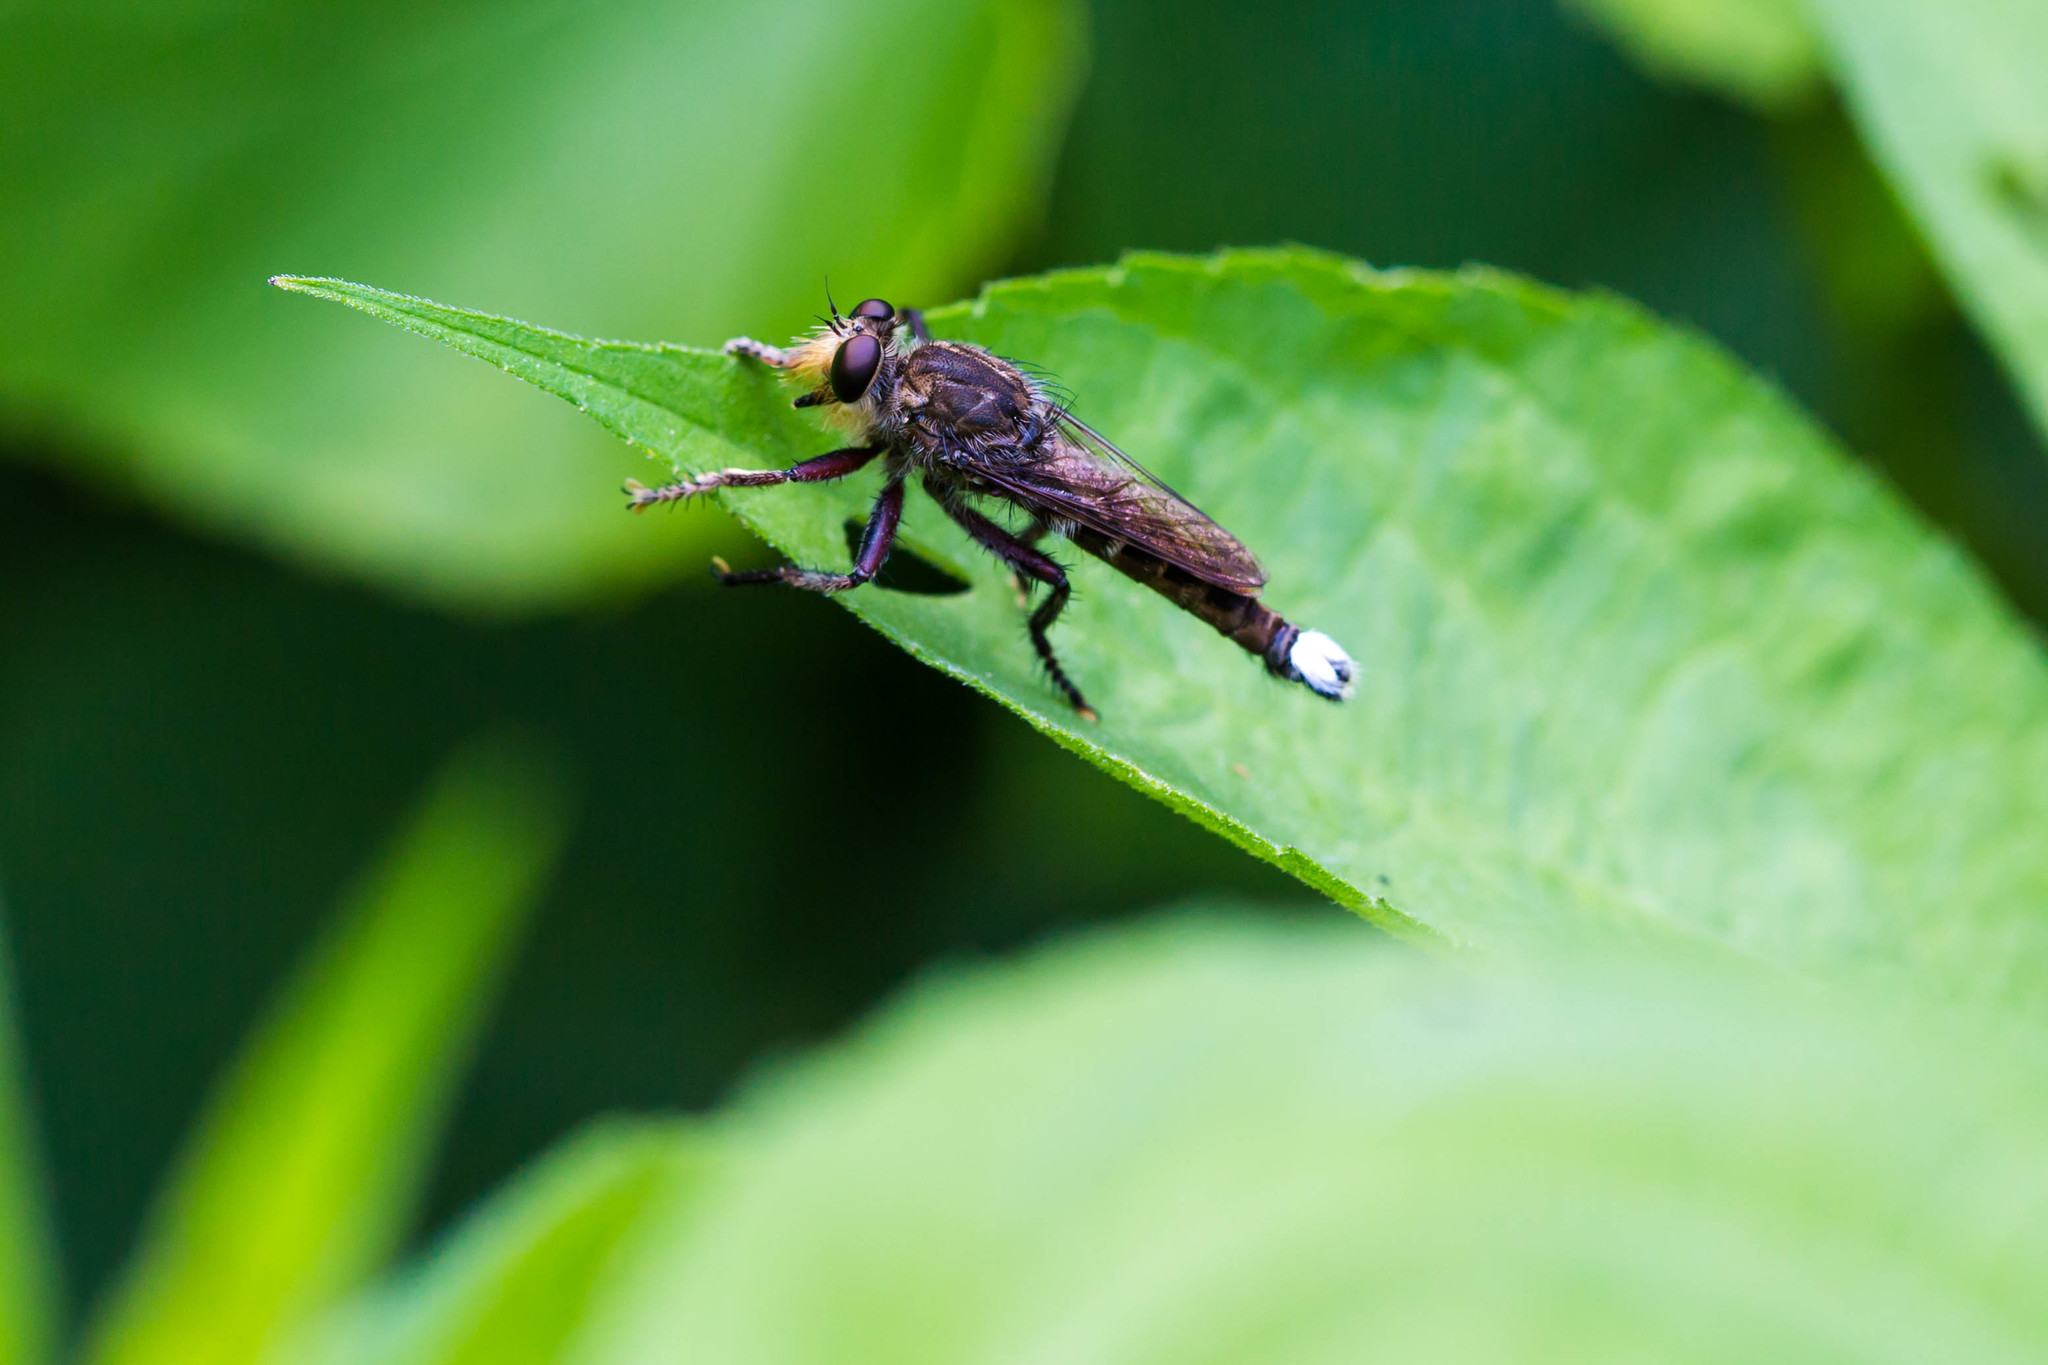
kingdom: Animalia
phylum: Arthropoda
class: Insecta
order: Diptera
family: Asilidae
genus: Promachus
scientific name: Promachus bastardii
